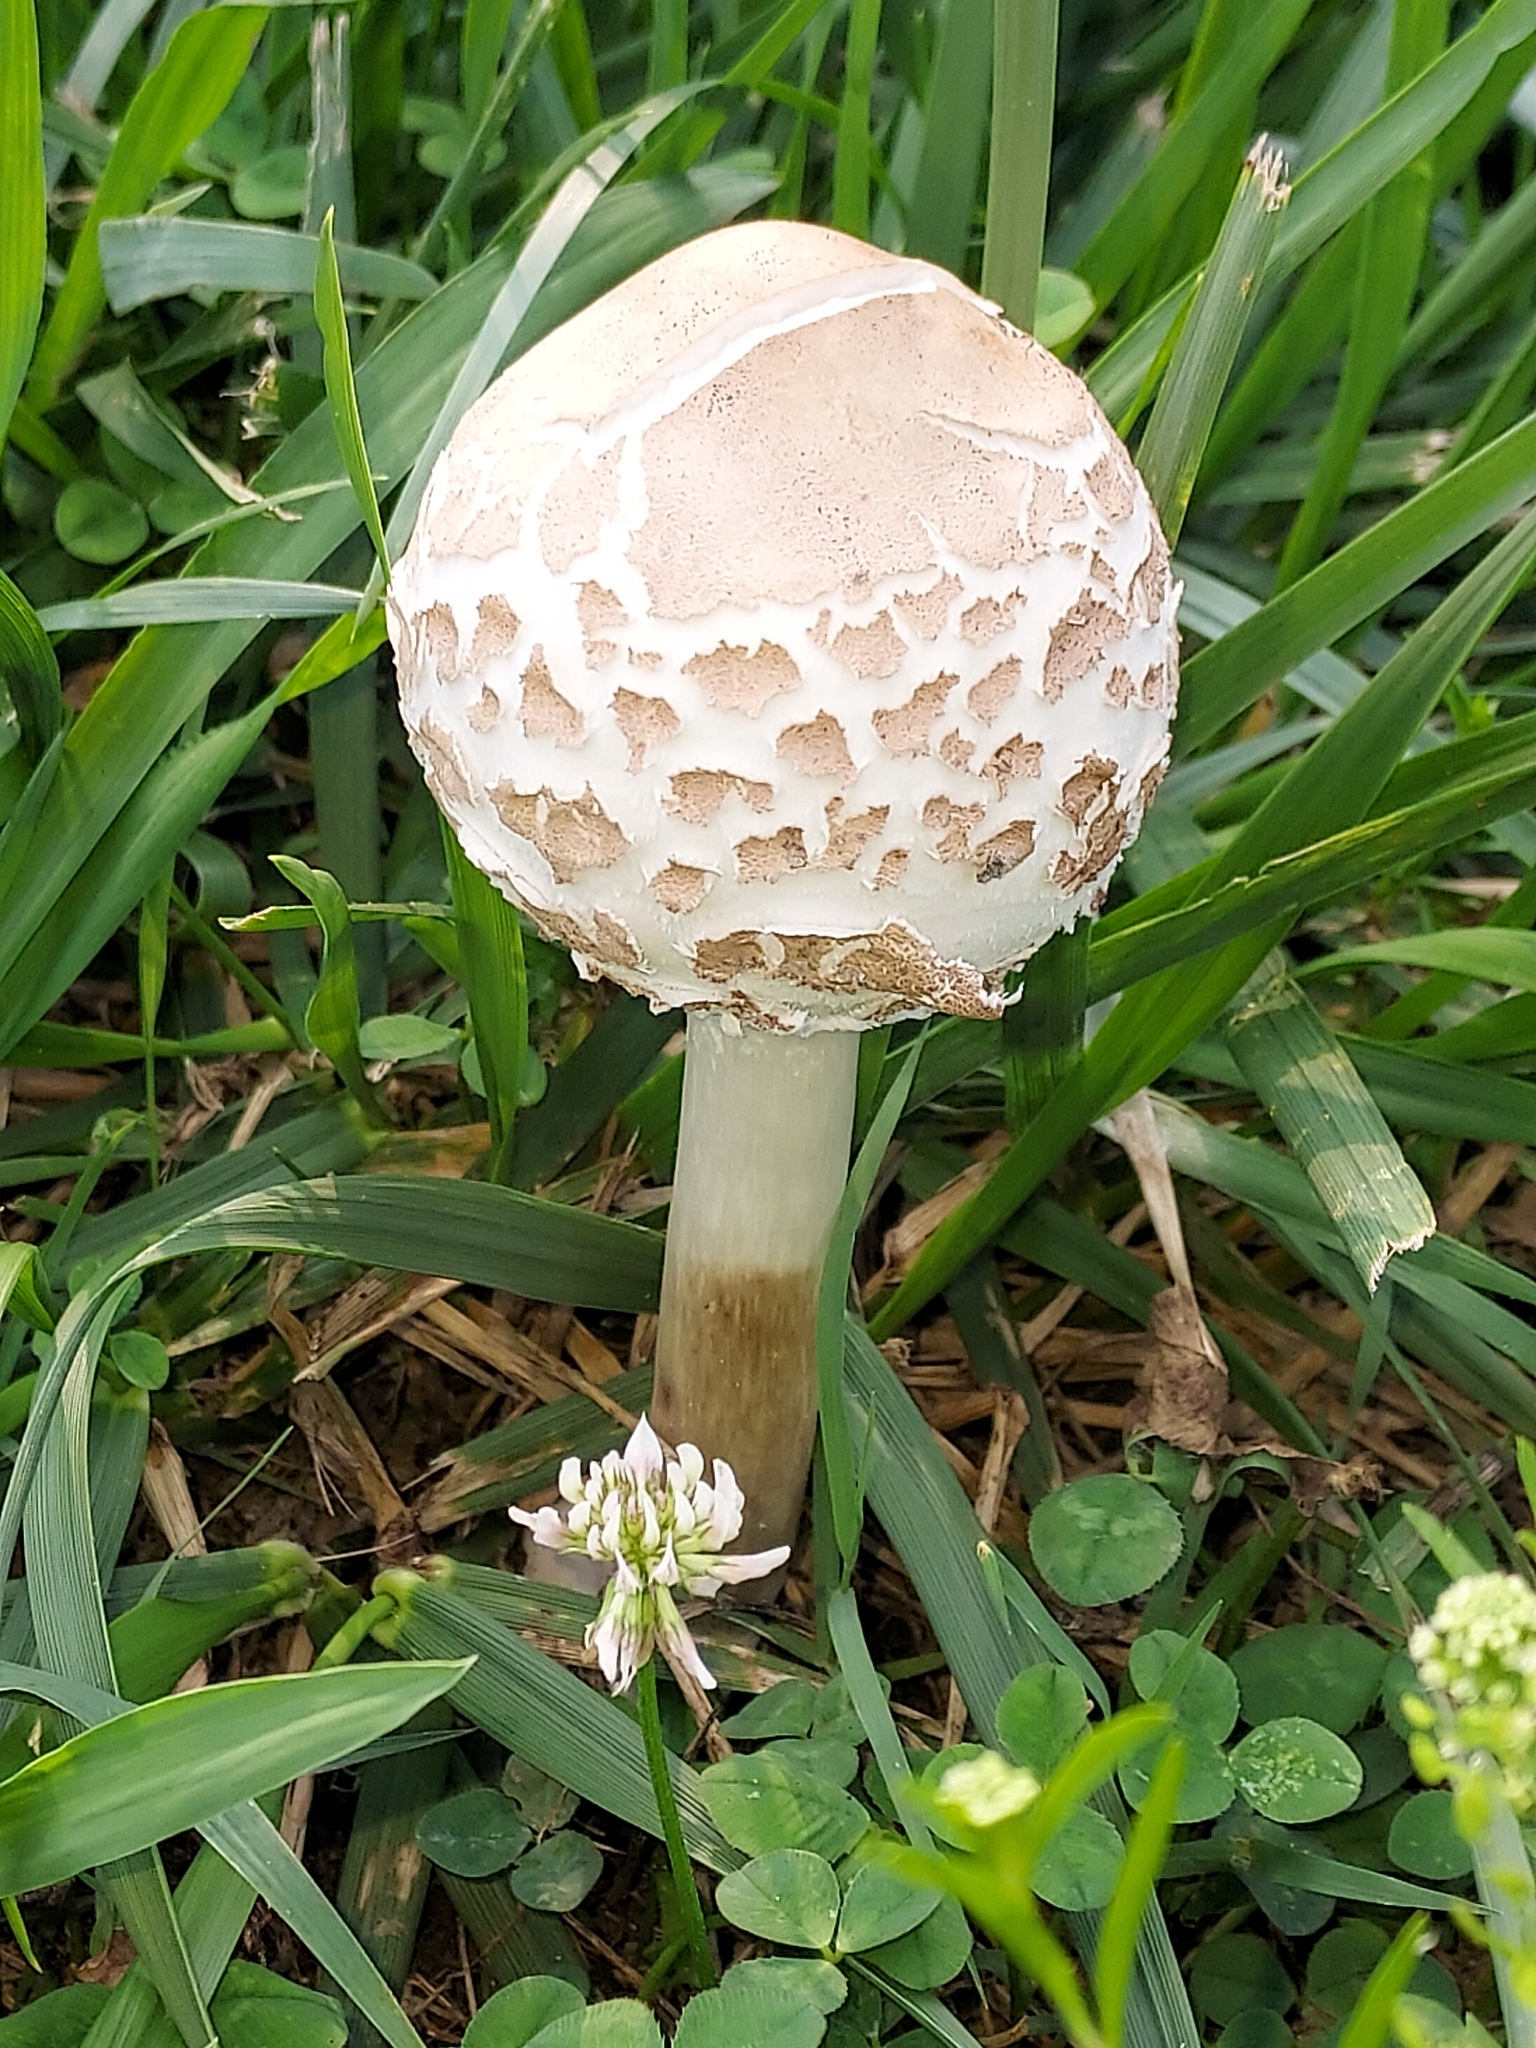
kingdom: Fungi
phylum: Basidiomycota
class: Agaricomycetes
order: Agaricales
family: Agaricaceae
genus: Chlorophyllum
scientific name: Chlorophyllum molybdites
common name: False parasol
